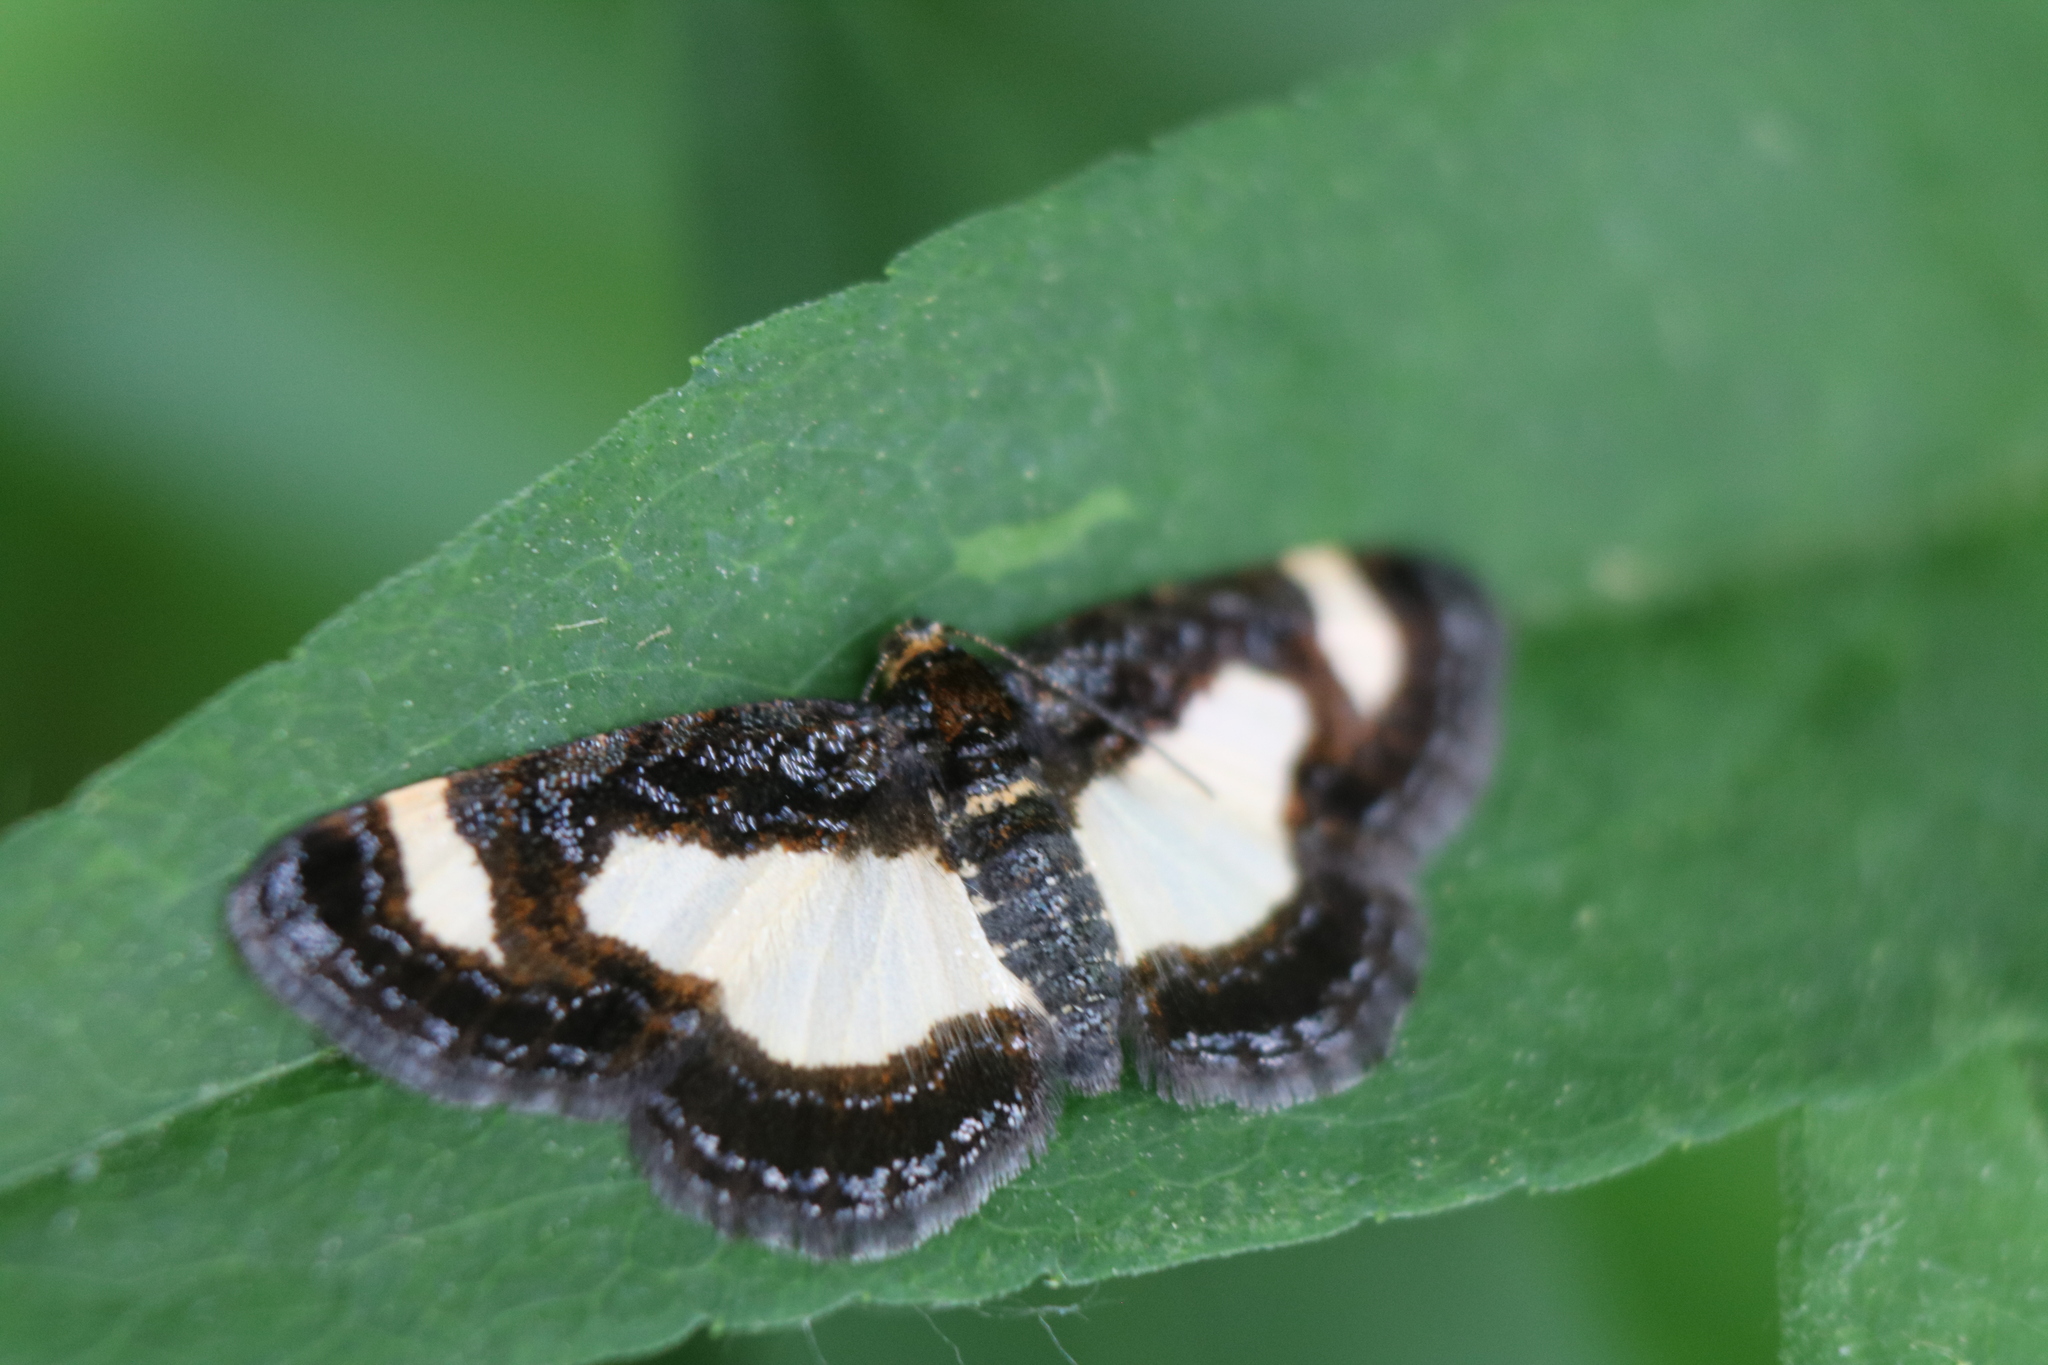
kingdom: Animalia
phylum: Arthropoda
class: Insecta
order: Lepidoptera
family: Geometridae
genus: Heliomata
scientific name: Heliomata cycladata
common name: Common spring moth
